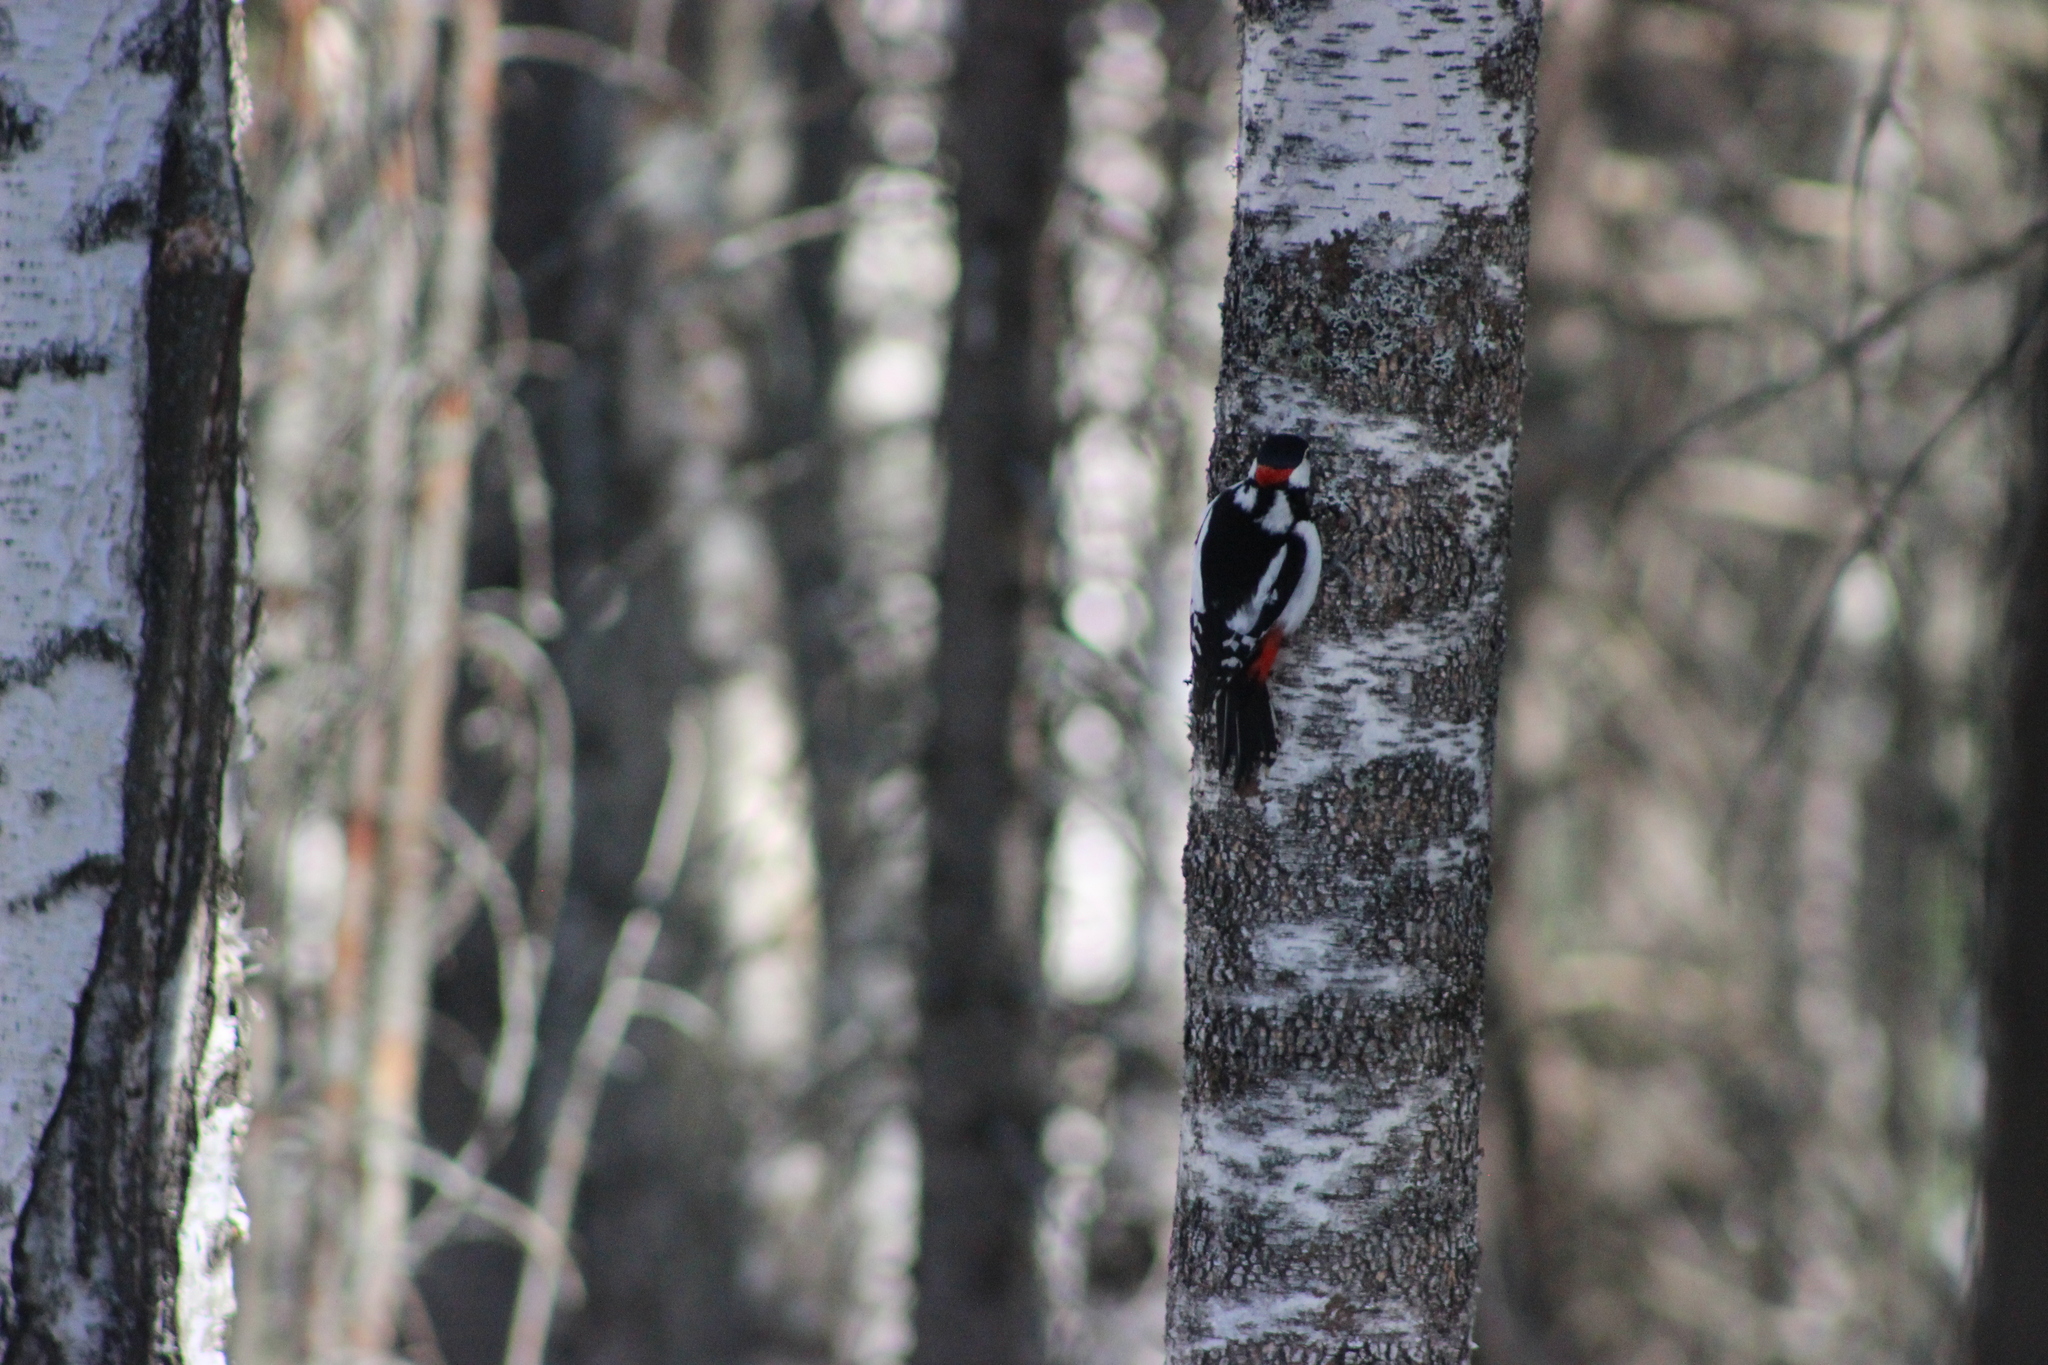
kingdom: Animalia
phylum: Chordata
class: Aves
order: Piciformes
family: Picidae
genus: Dendrocopos
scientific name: Dendrocopos major
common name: Great spotted woodpecker
